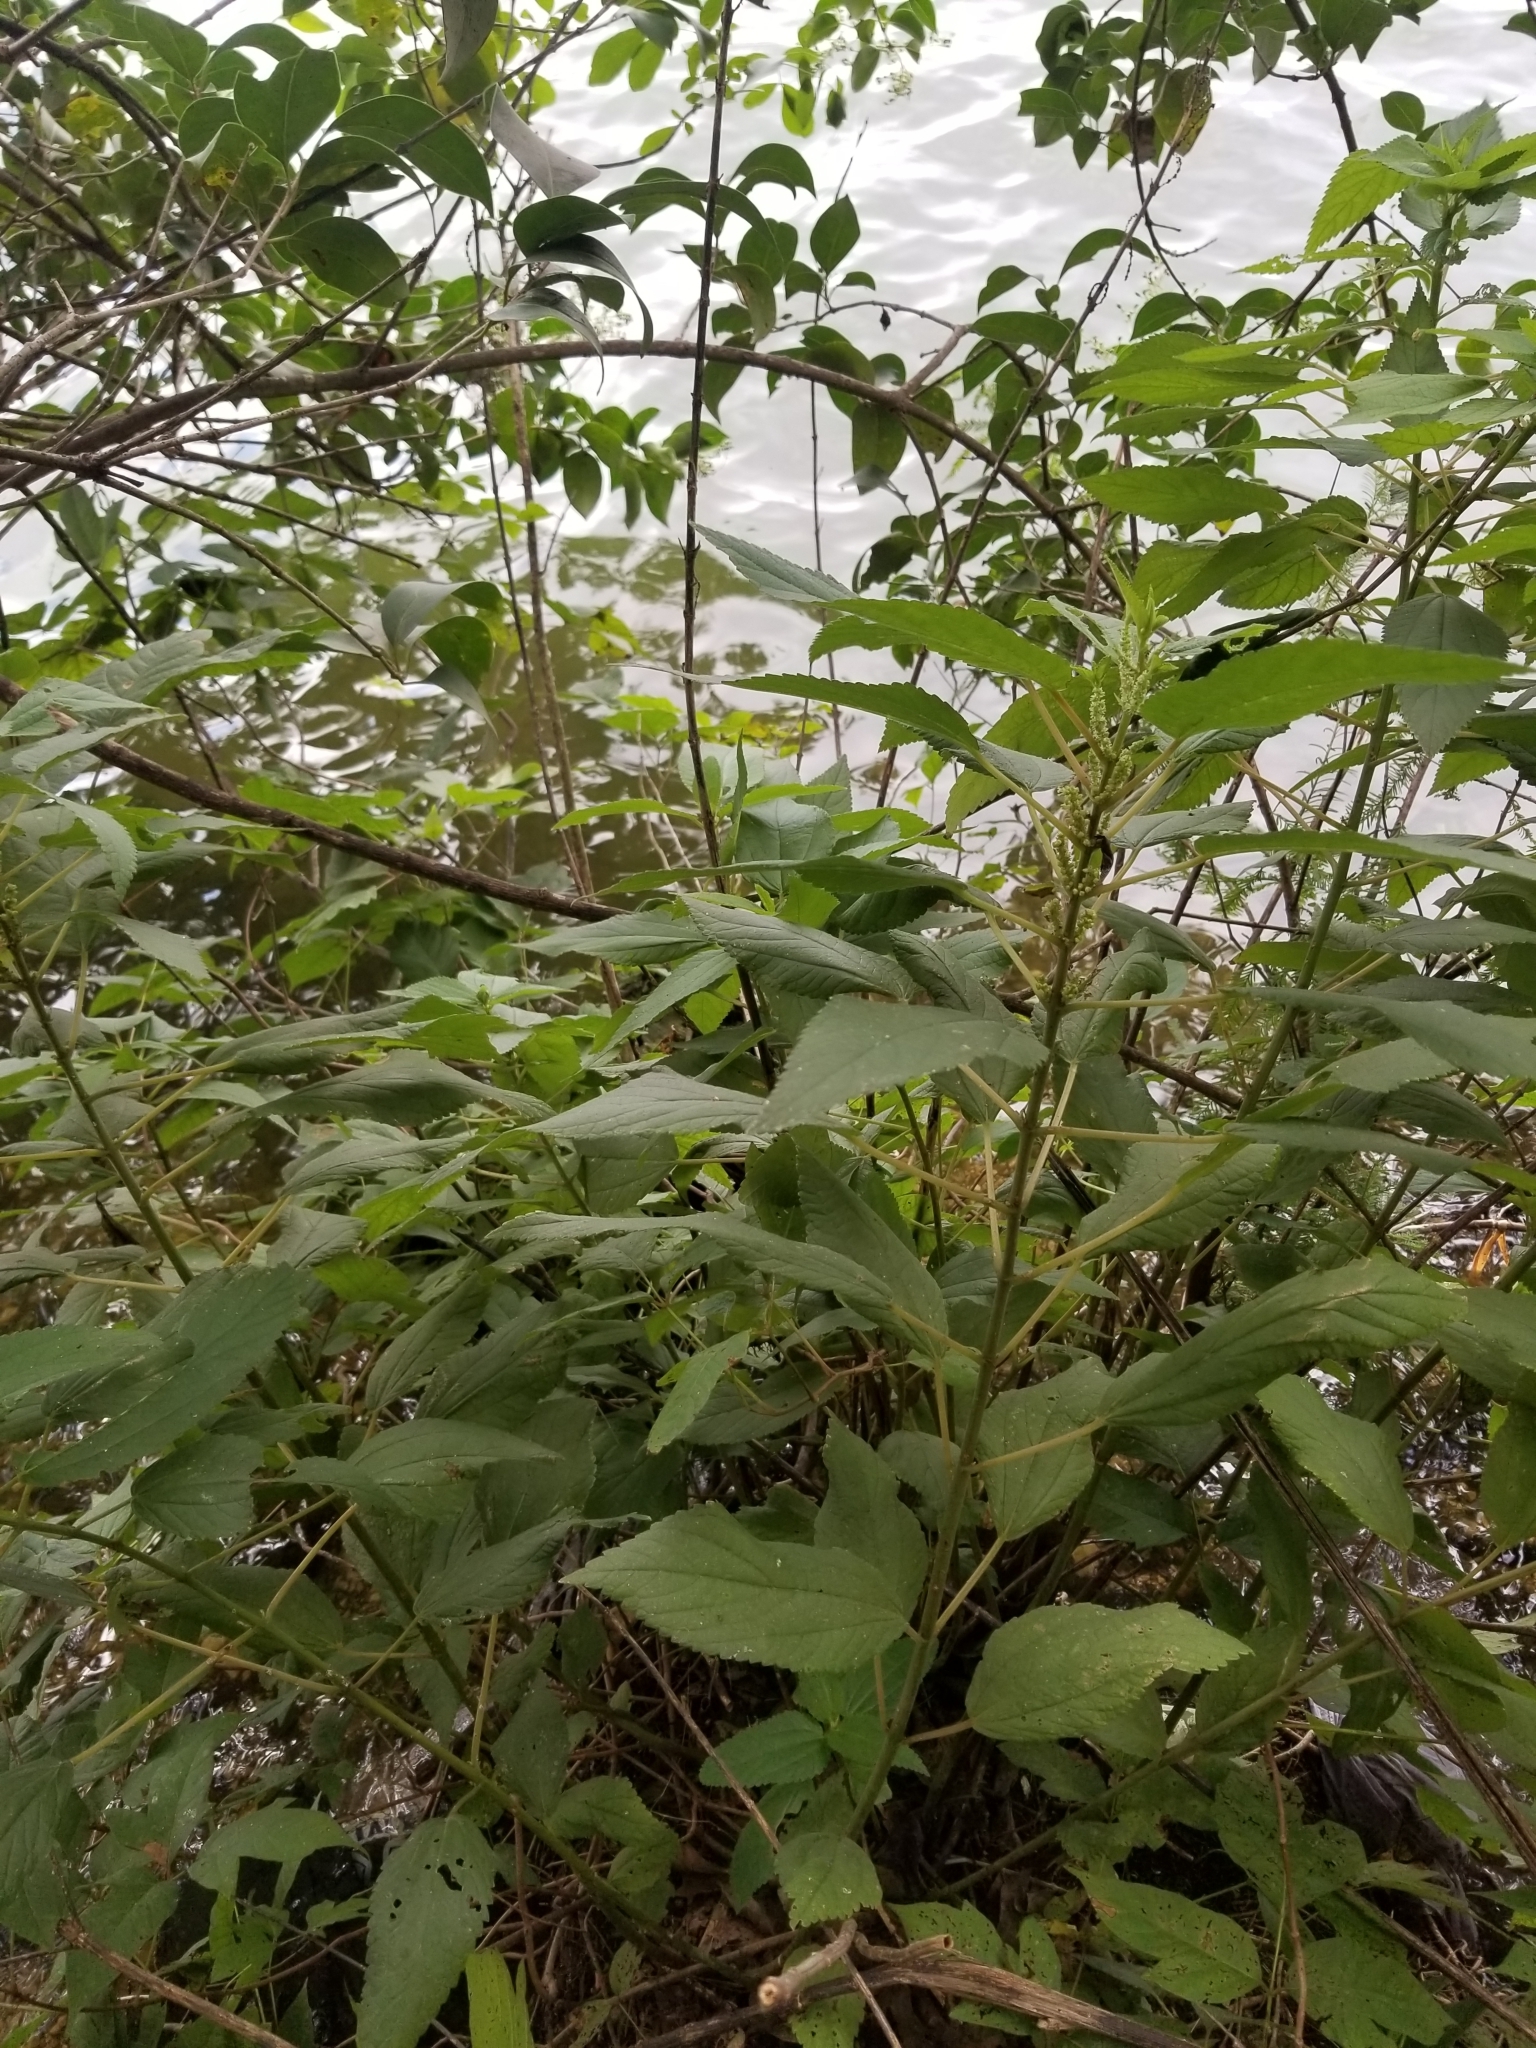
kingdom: Plantae
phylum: Tracheophyta
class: Magnoliopsida
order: Rosales
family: Urticaceae
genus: Boehmeria
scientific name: Boehmeria cylindrica
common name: Bog-hemp
